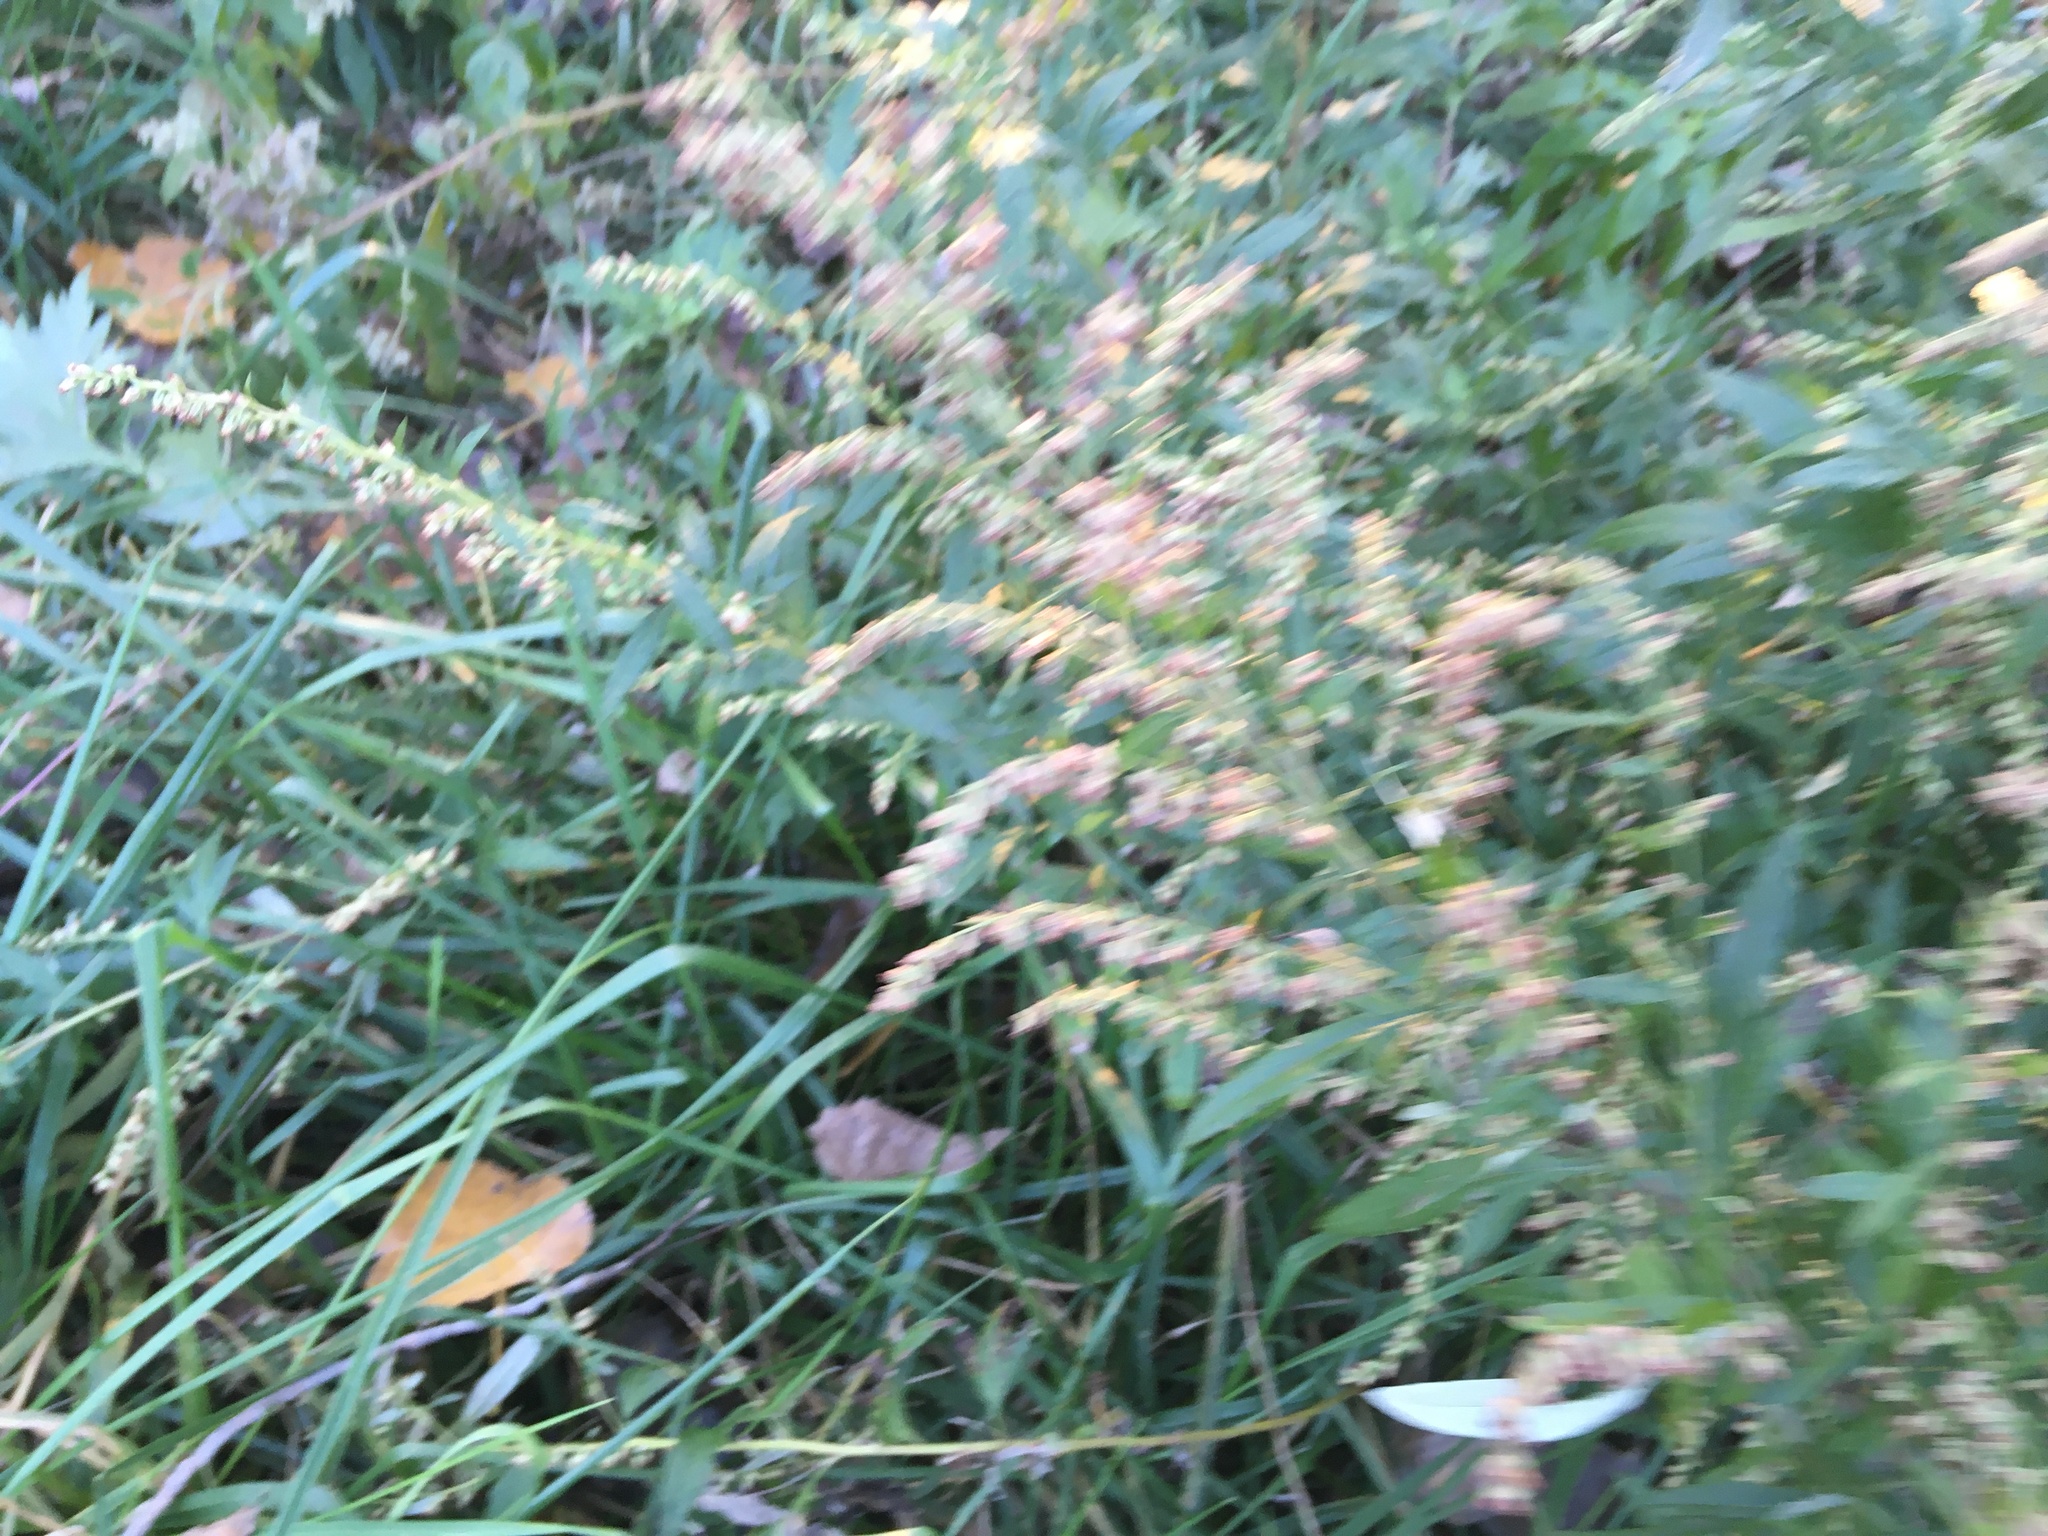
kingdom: Plantae
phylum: Tracheophyta
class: Magnoliopsida
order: Asterales
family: Asteraceae
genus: Artemisia
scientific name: Artemisia vulgaris
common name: Mugwort
